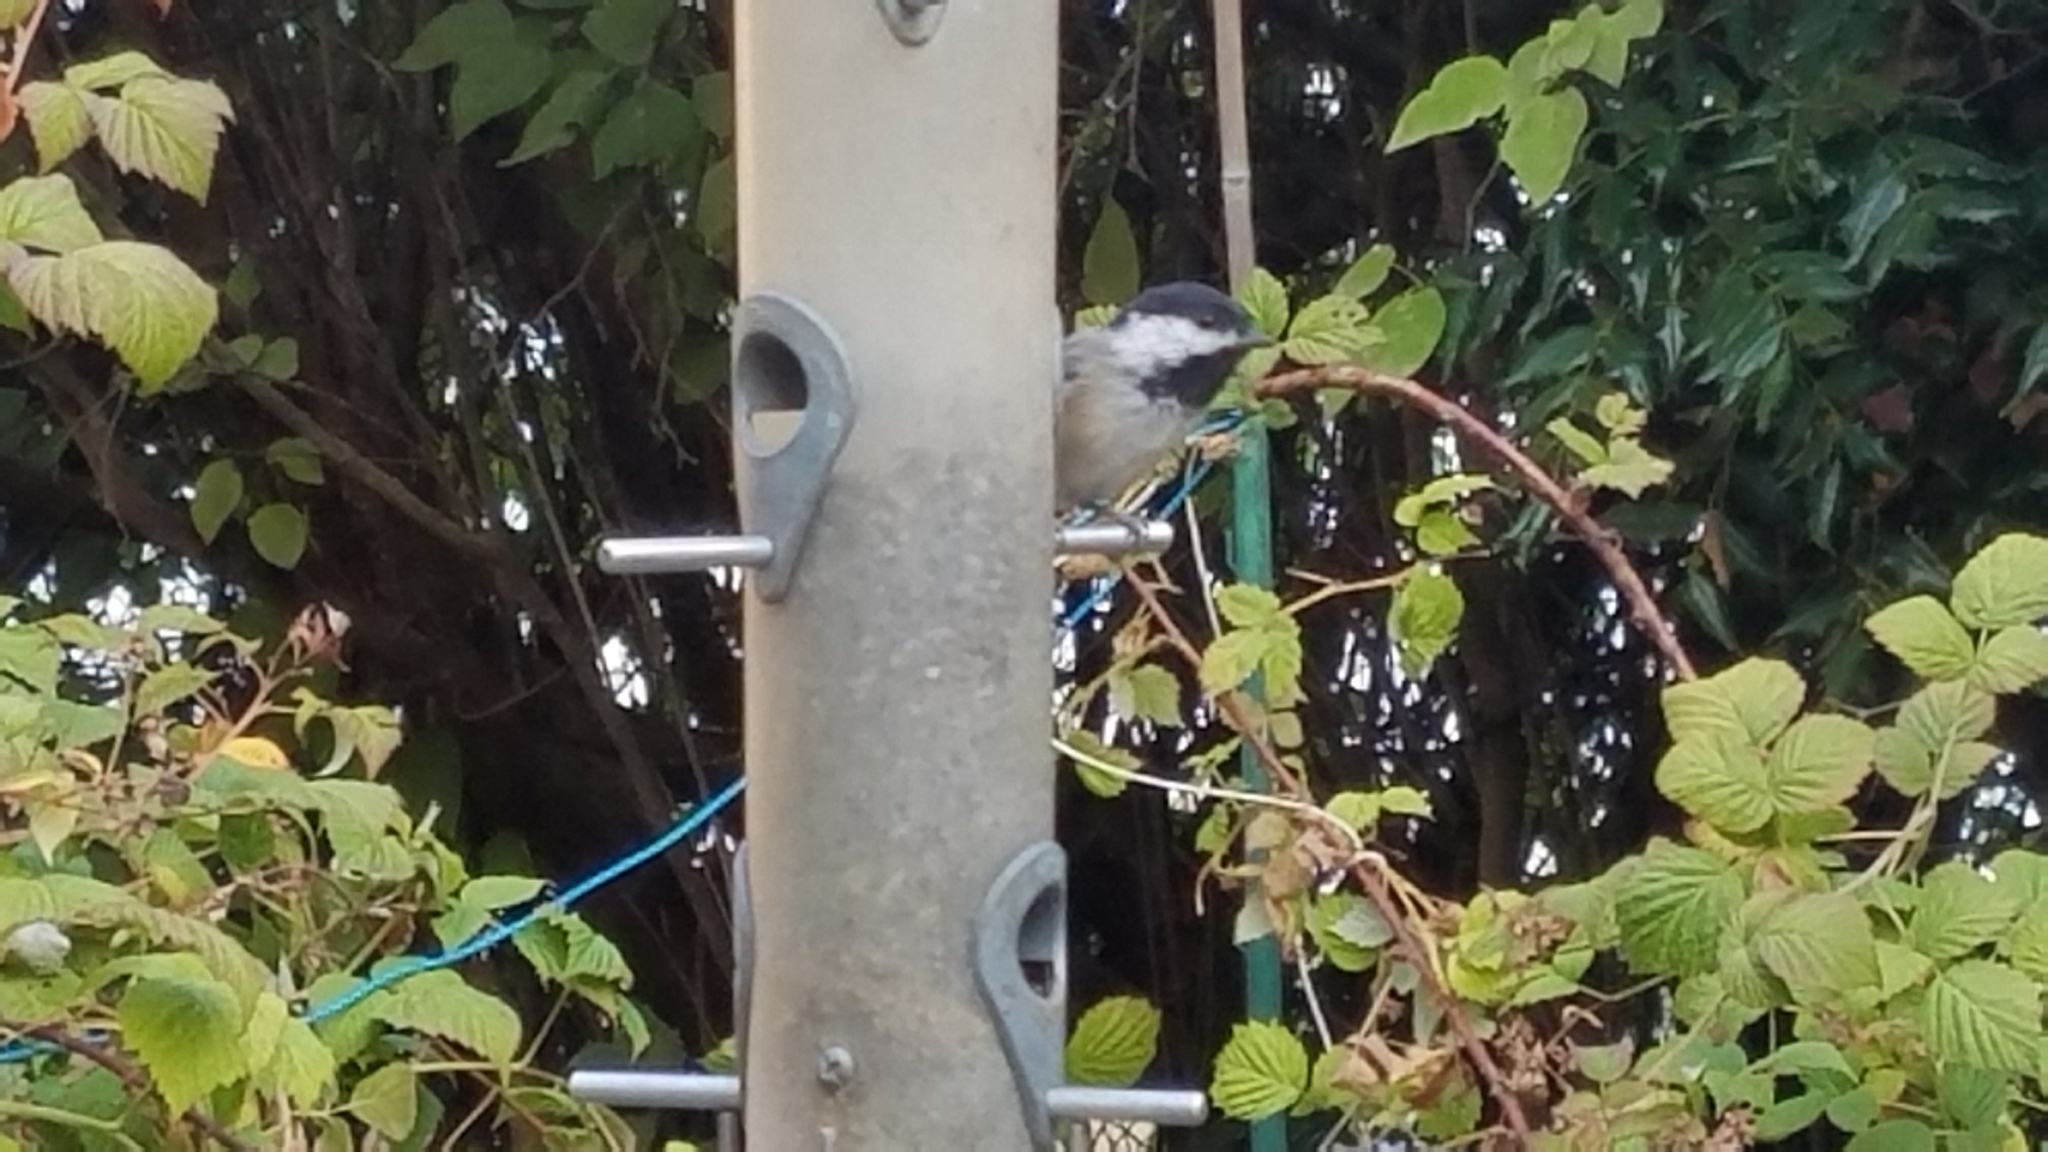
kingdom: Animalia
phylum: Chordata
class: Aves
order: Passeriformes
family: Paridae
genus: Poecile
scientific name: Poecile atricapillus
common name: Black-capped chickadee
